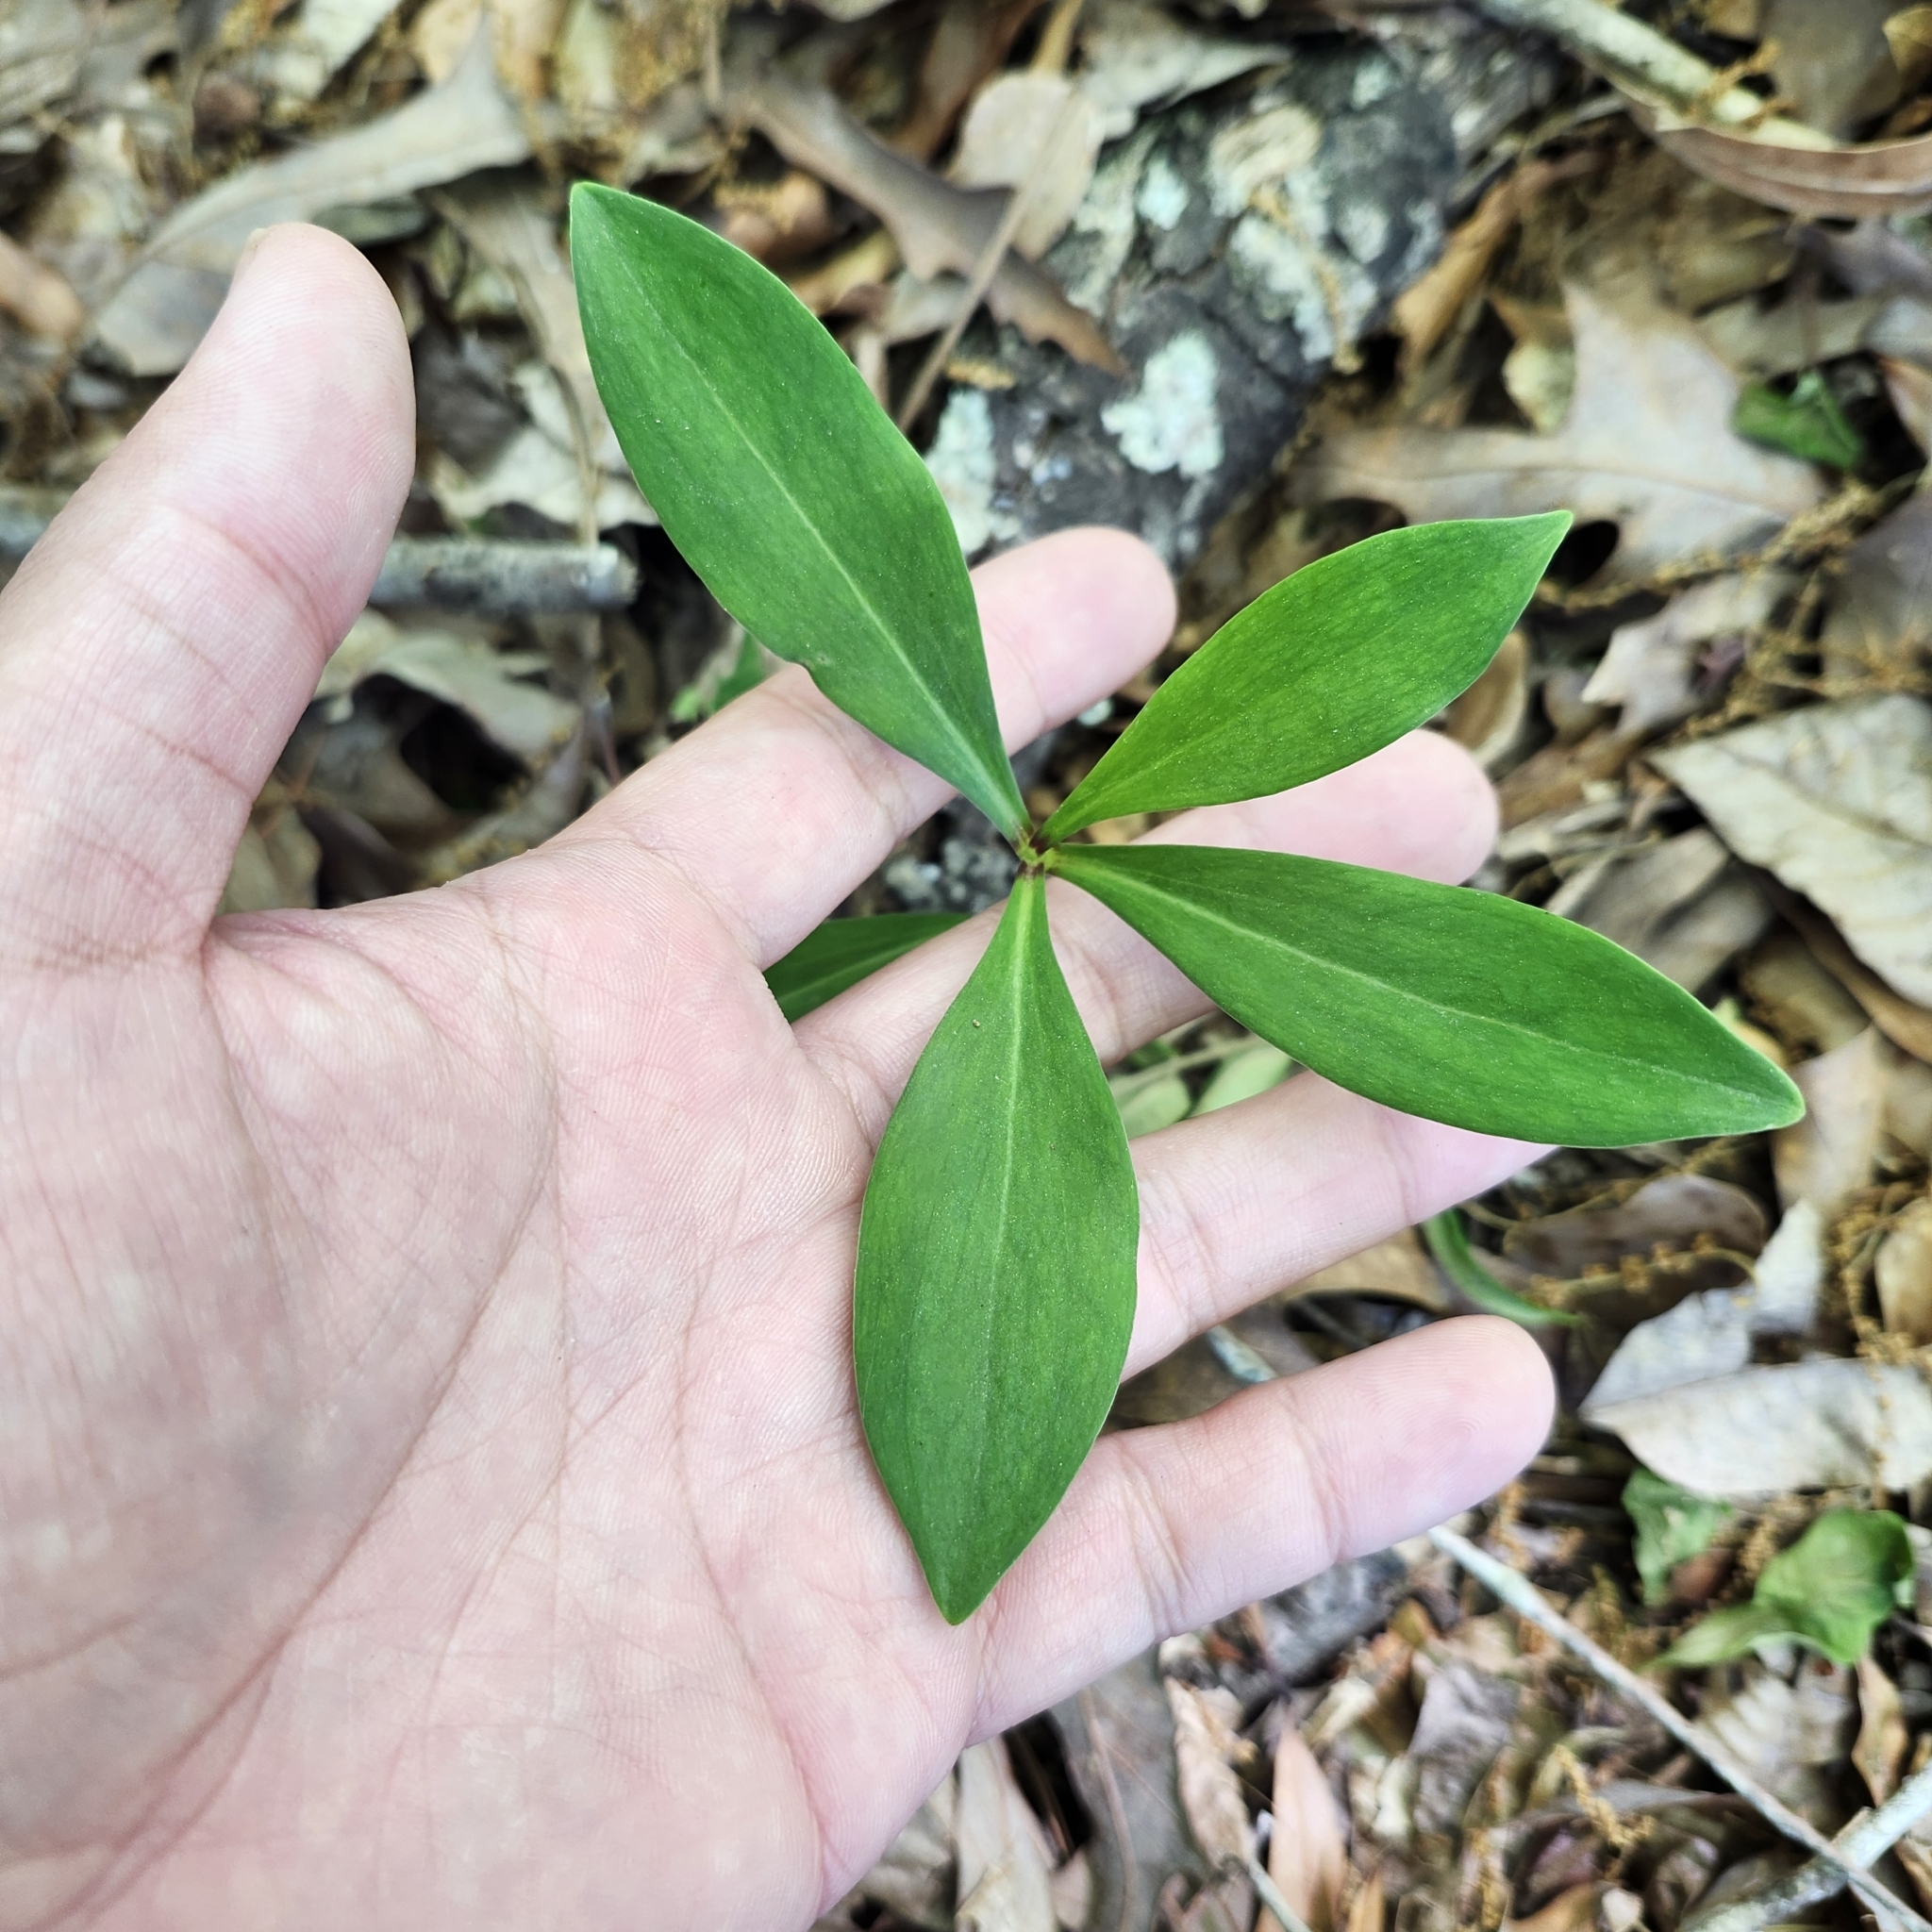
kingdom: Plantae
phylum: Tracheophyta
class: Liliopsida
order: Liliales
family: Liliaceae
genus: Lilium
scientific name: Lilium michauxii
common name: Carolina lily
